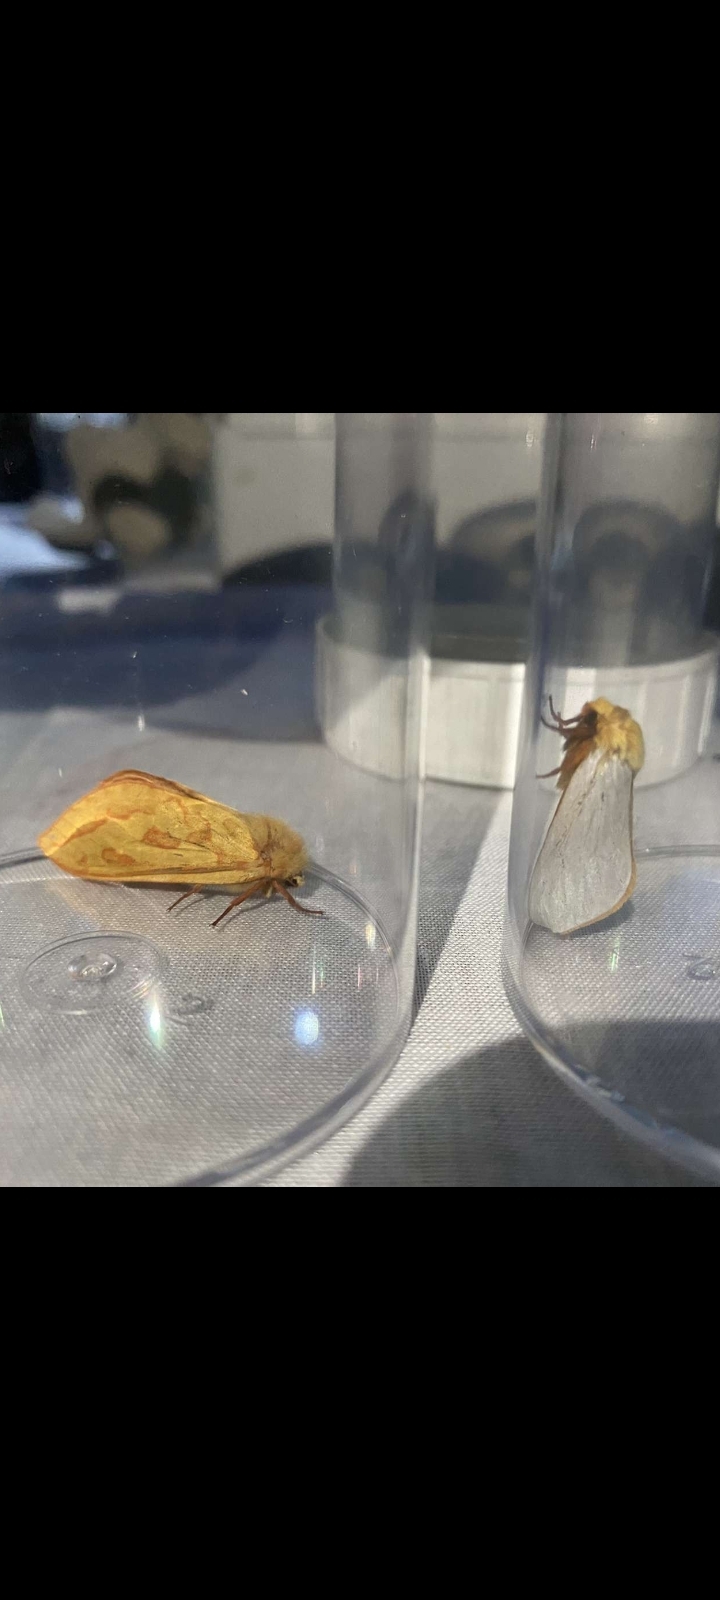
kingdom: Animalia
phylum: Arthropoda
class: Insecta
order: Lepidoptera
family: Hepialidae
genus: Hepialus
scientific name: Hepialus humuli
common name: Ghost moth
